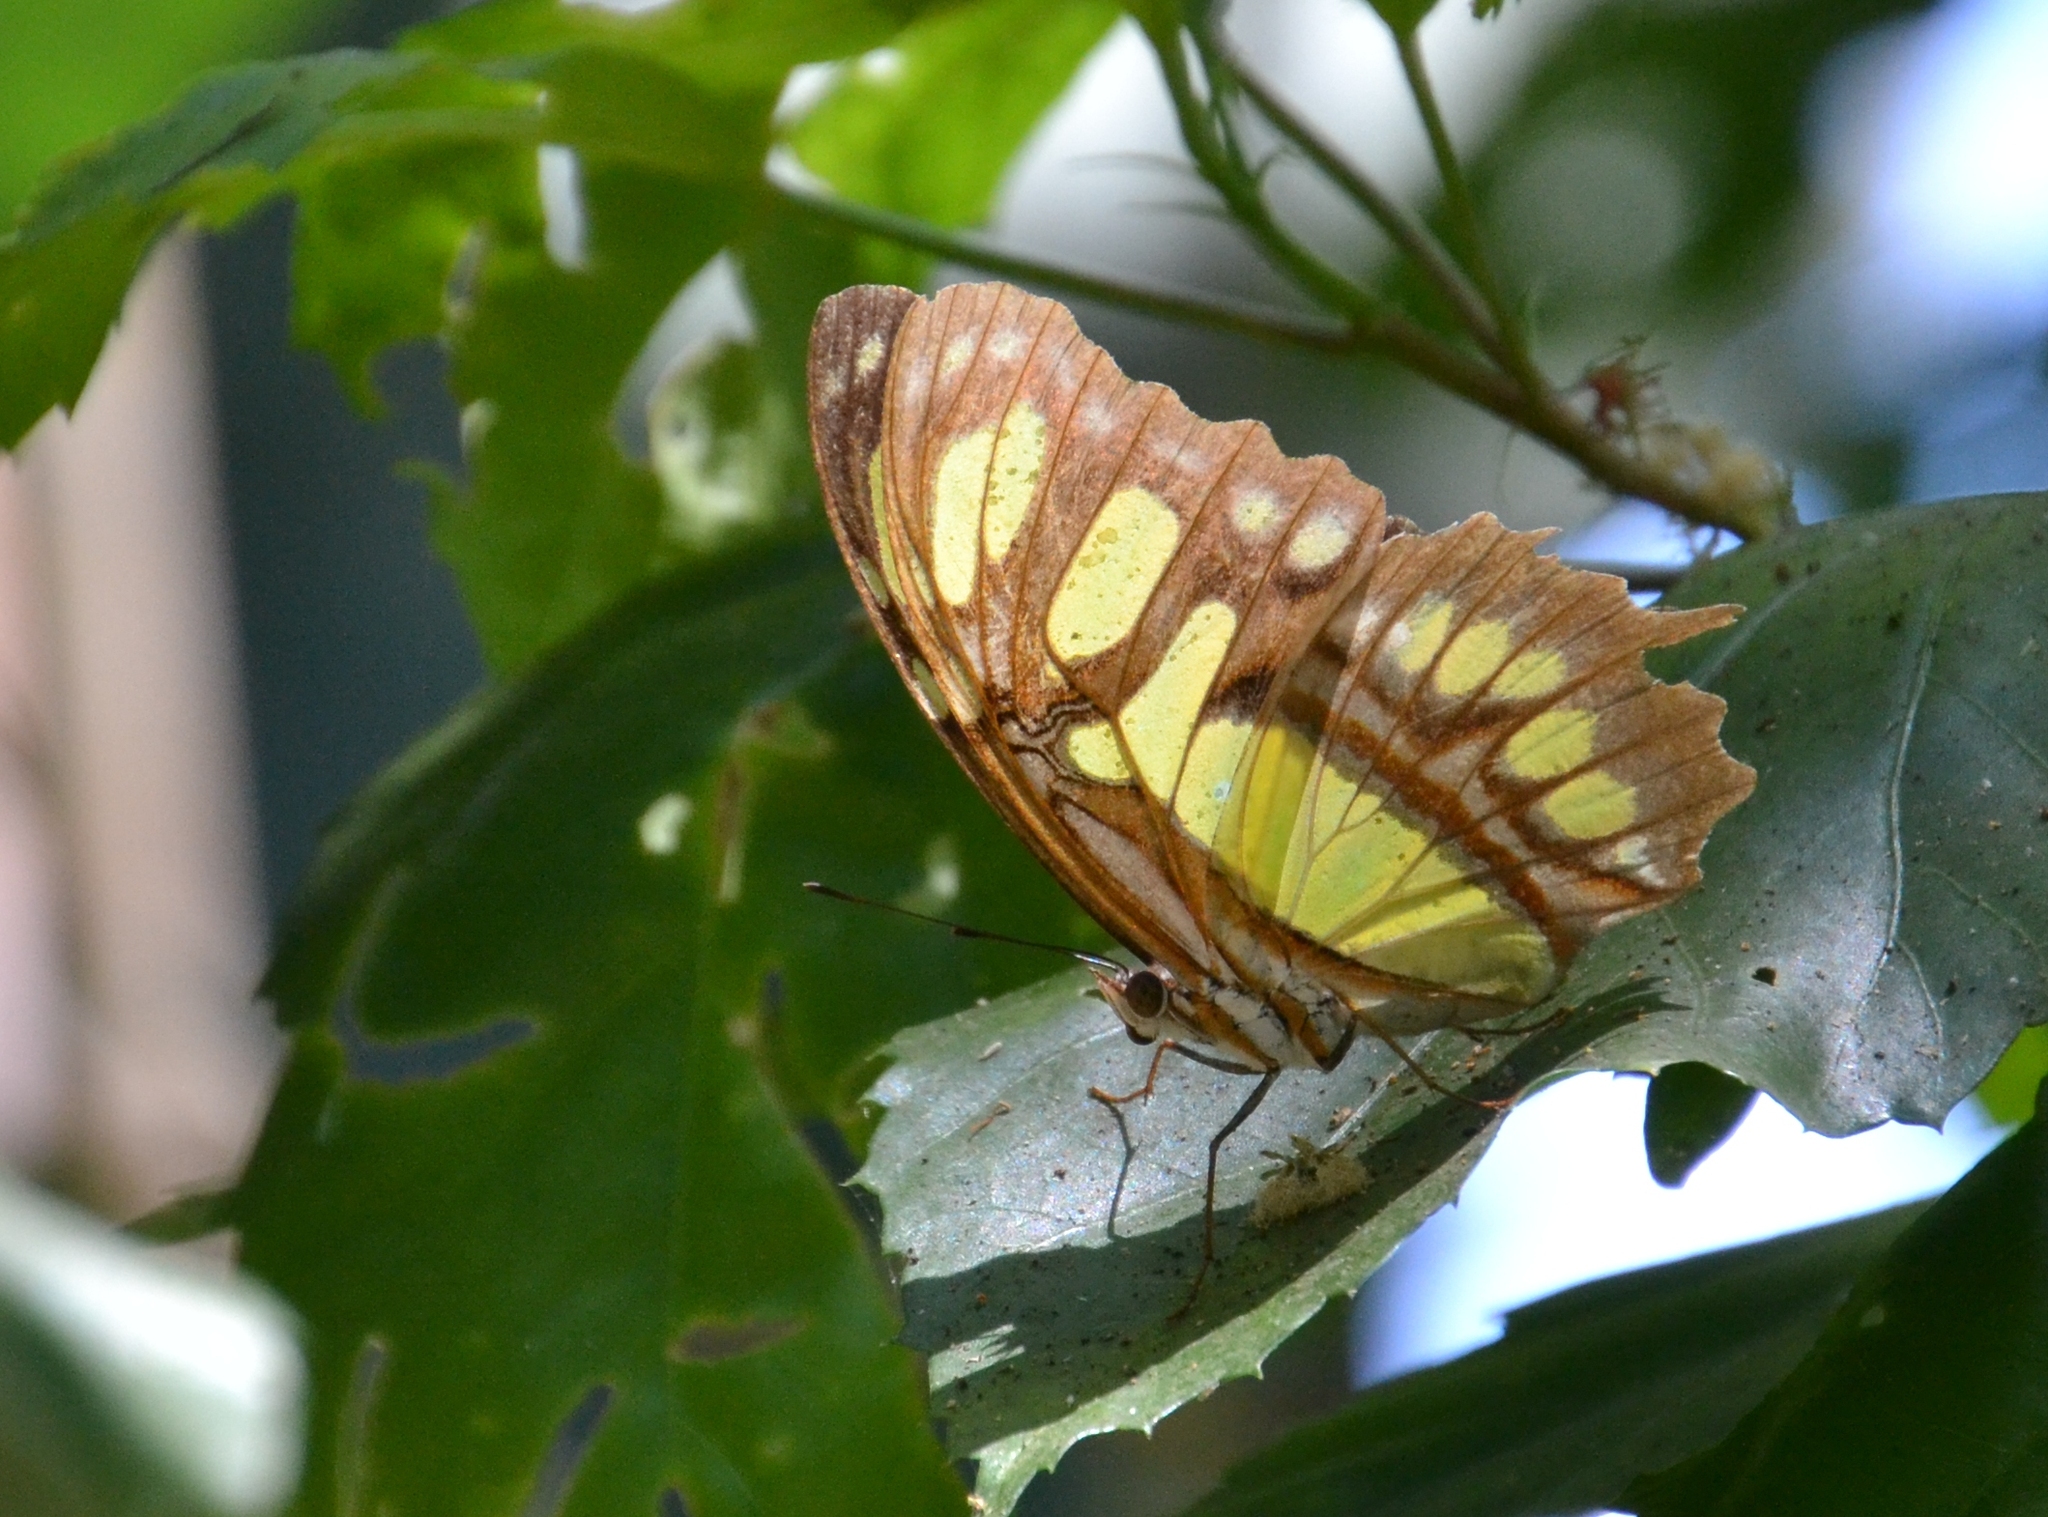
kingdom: Animalia
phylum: Arthropoda
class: Insecta
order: Lepidoptera
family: Nymphalidae
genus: Siproeta
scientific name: Siproeta stelenes
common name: Malachite
